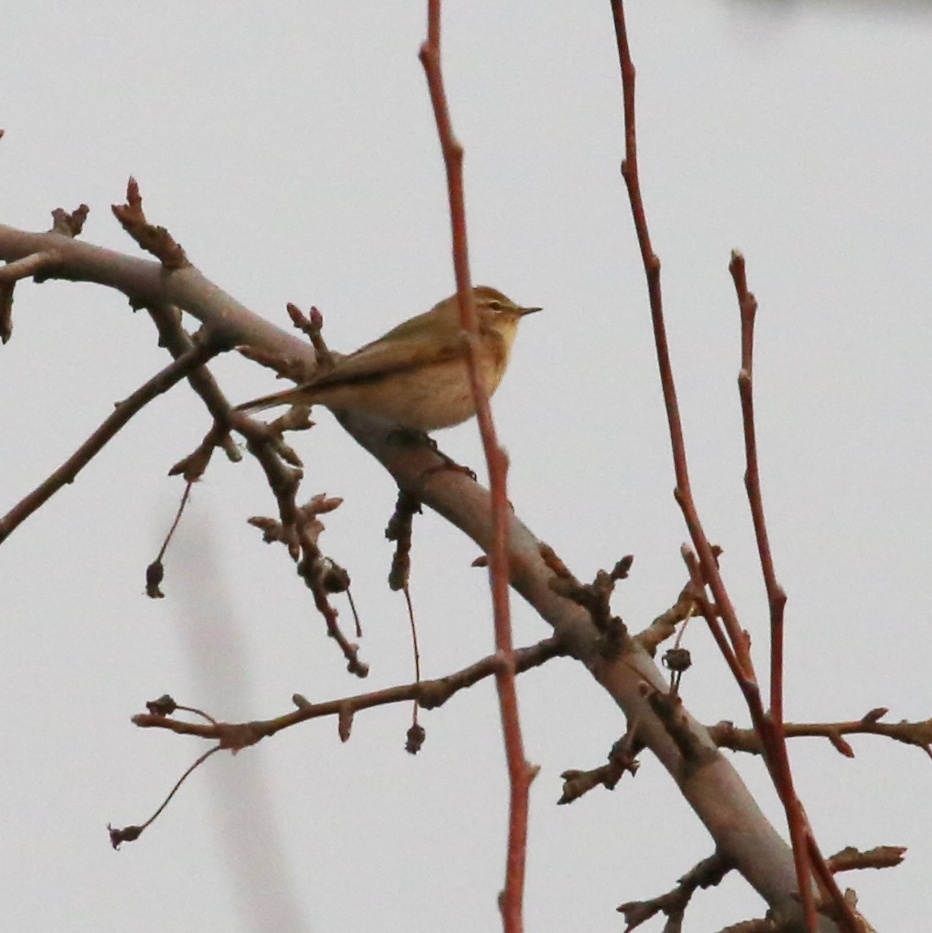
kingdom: Animalia
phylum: Chordata
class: Aves
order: Passeriformes
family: Phylloscopidae
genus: Phylloscopus
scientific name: Phylloscopus collybita
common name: Common chiffchaff
